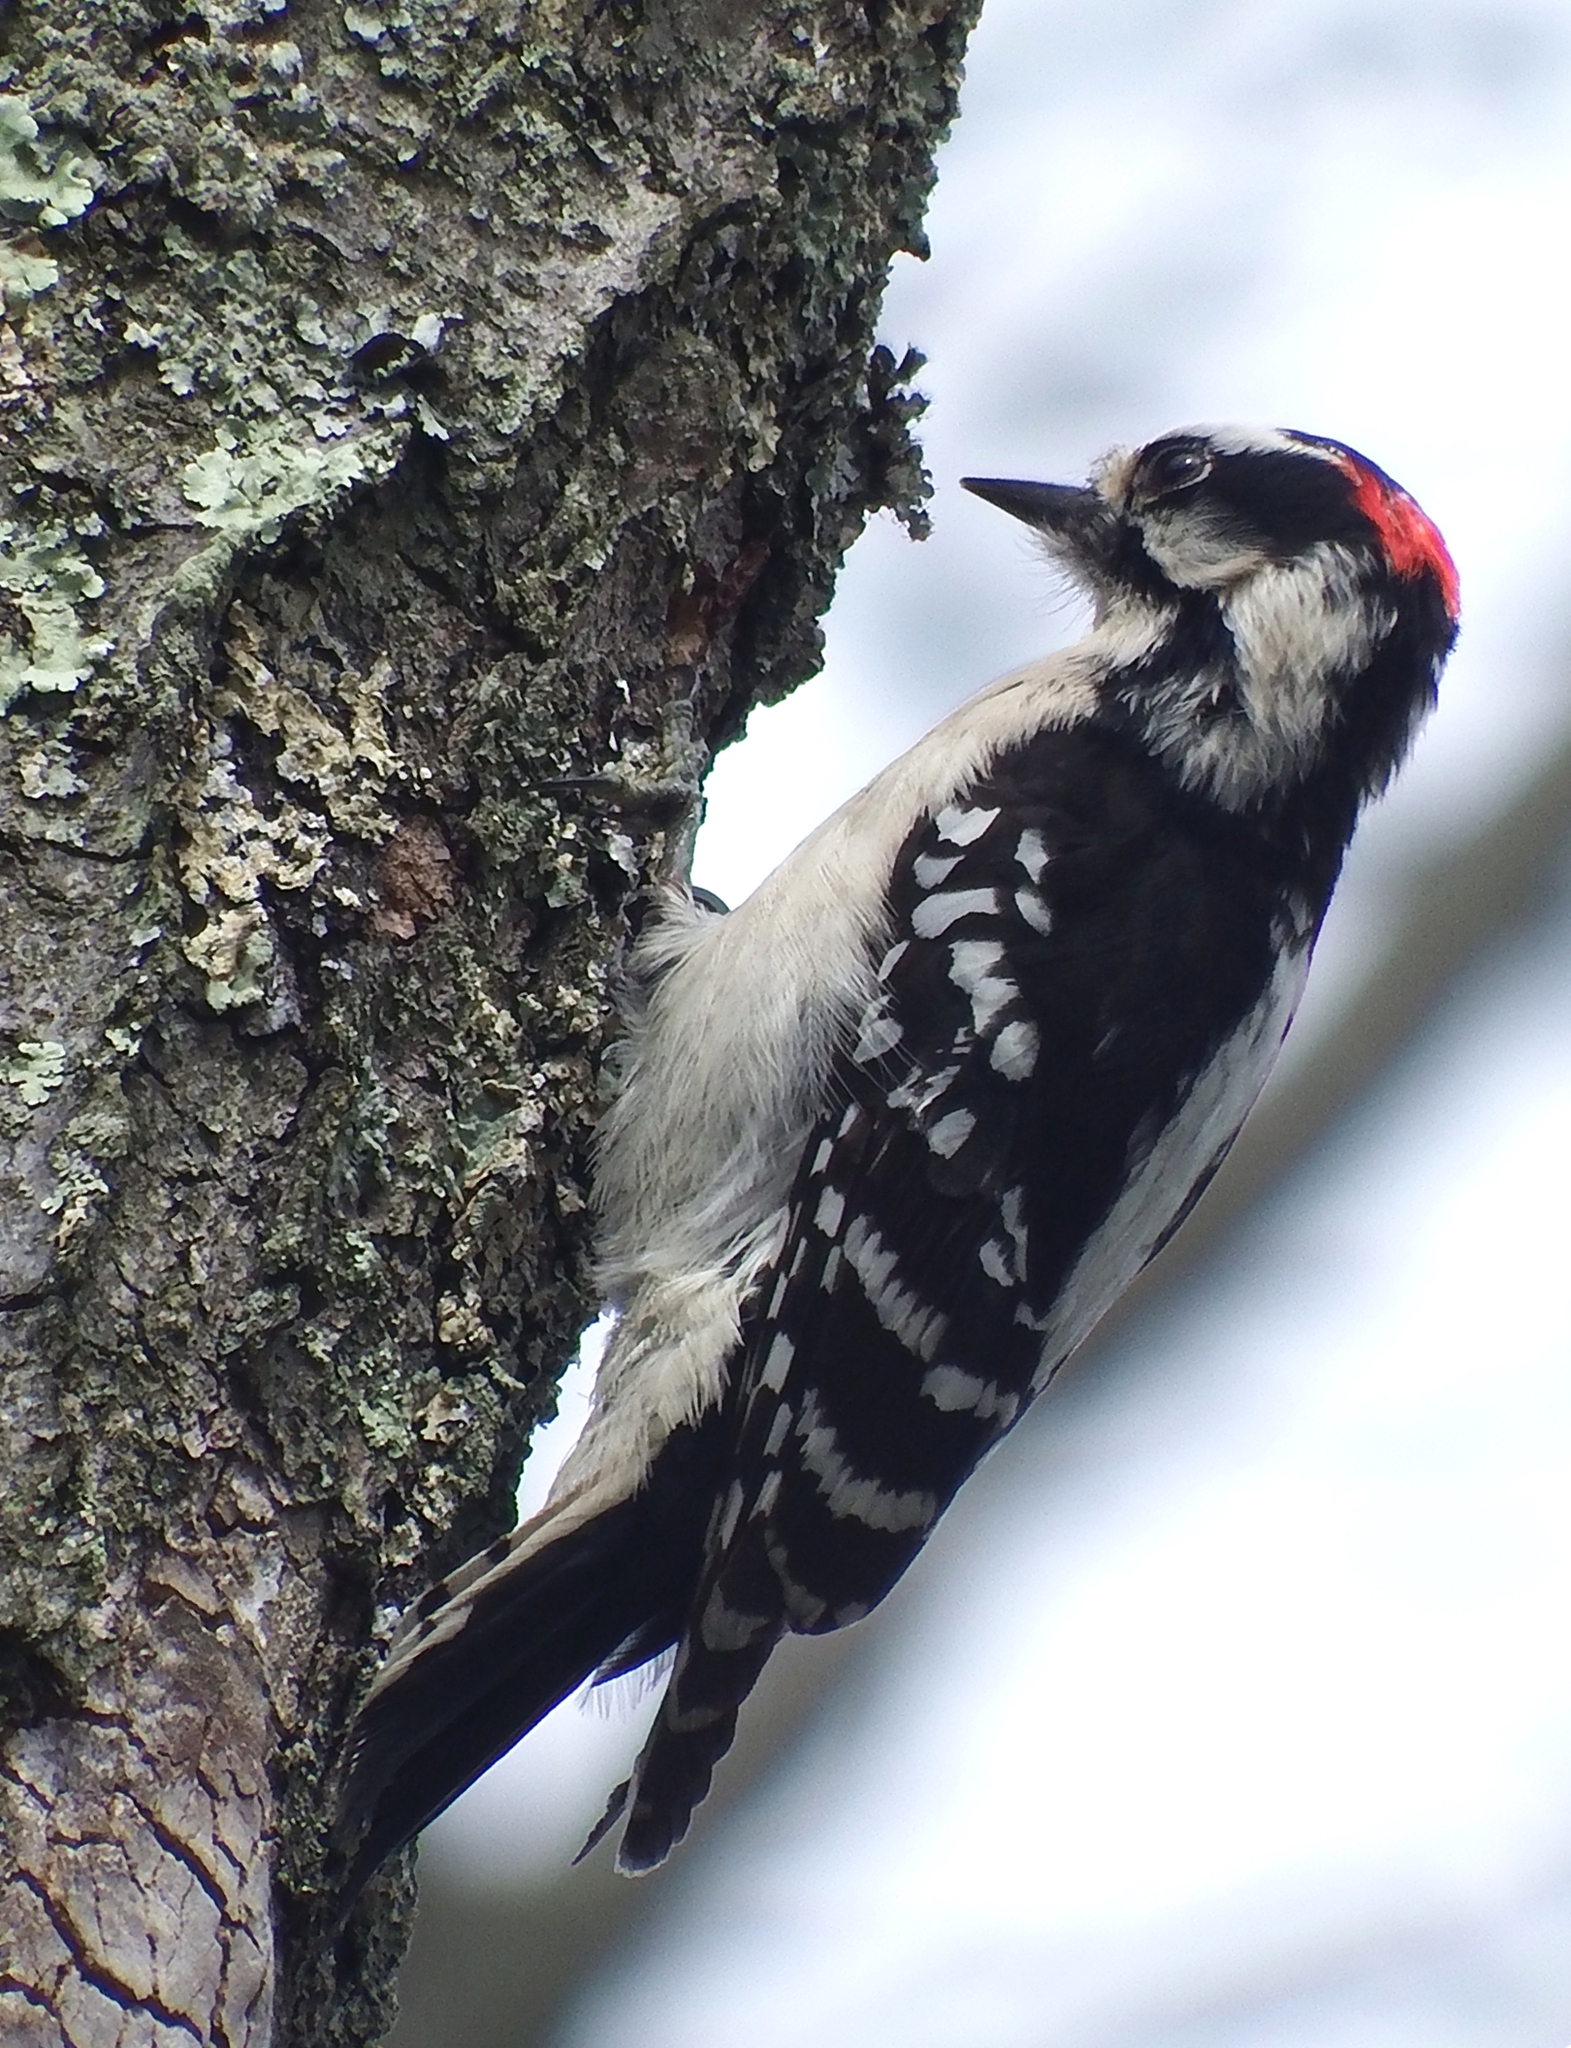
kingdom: Animalia
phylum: Chordata
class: Aves
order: Piciformes
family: Picidae
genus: Dryobates
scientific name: Dryobates pubescens
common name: Downy woodpecker
